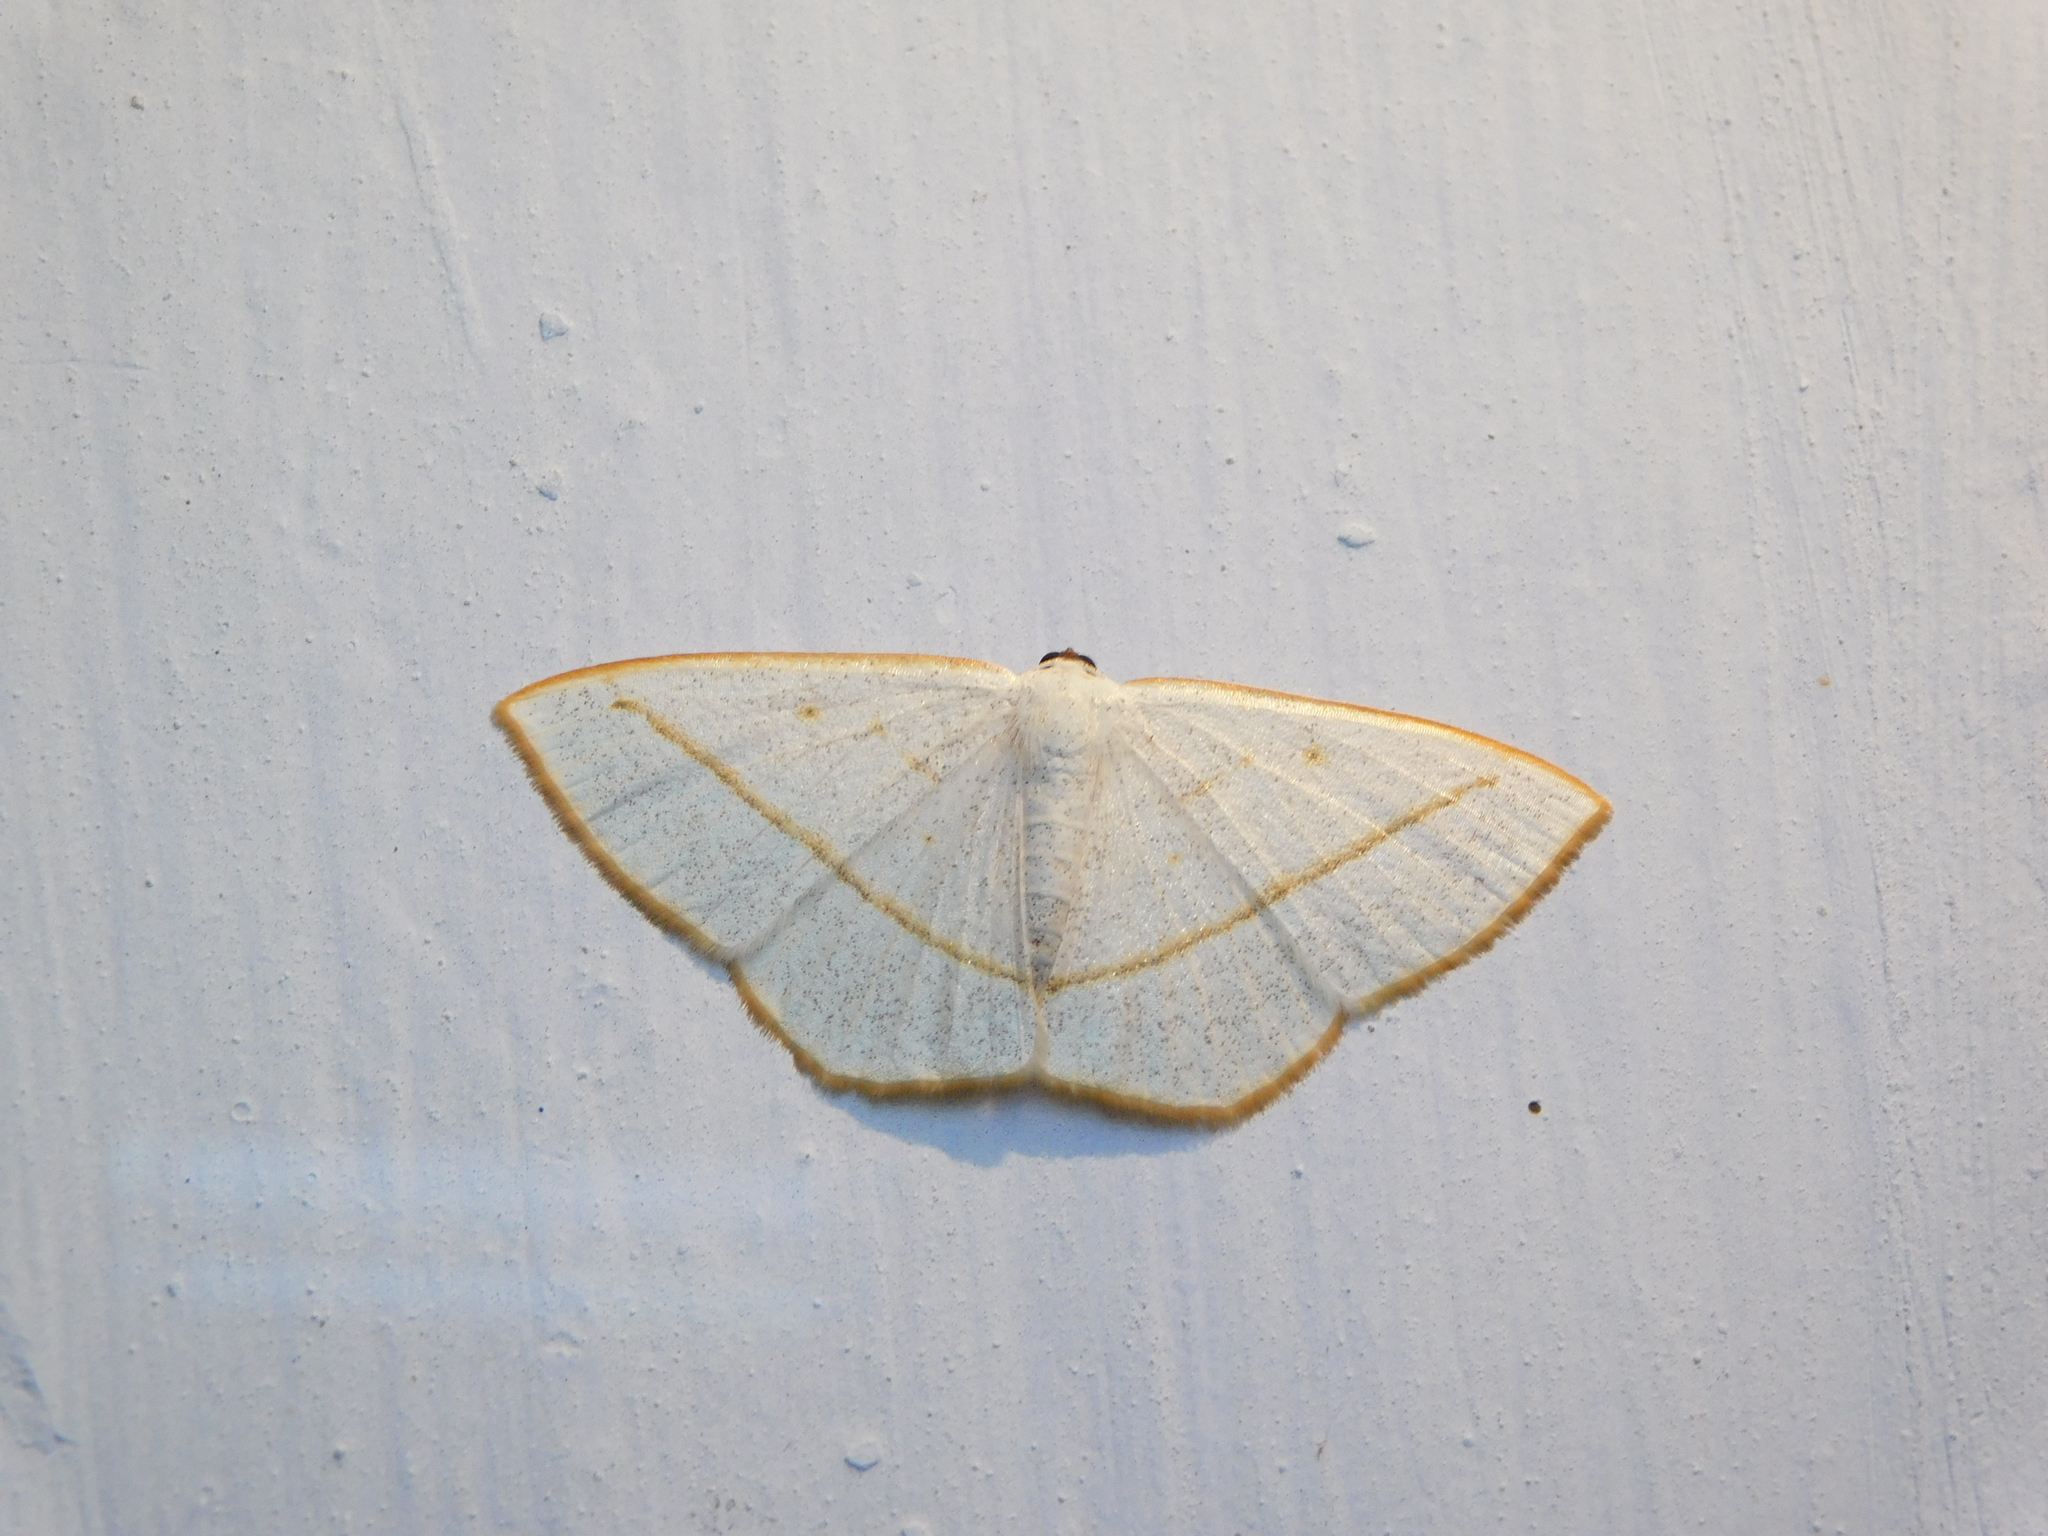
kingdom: Animalia
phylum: Arthropoda
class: Insecta
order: Lepidoptera
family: Geometridae
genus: Lomographa
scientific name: Lomographa inamata
